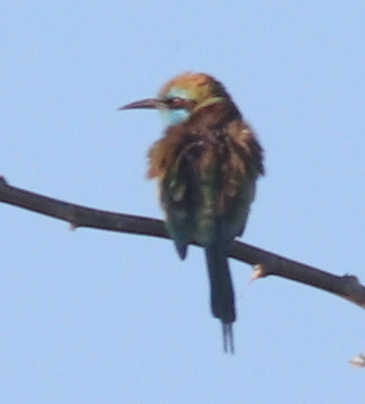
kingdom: Animalia
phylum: Chordata
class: Aves
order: Coraciiformes
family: Meropidae
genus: Merops
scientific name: Merops cyanophrys
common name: Arabian green bee-eater
